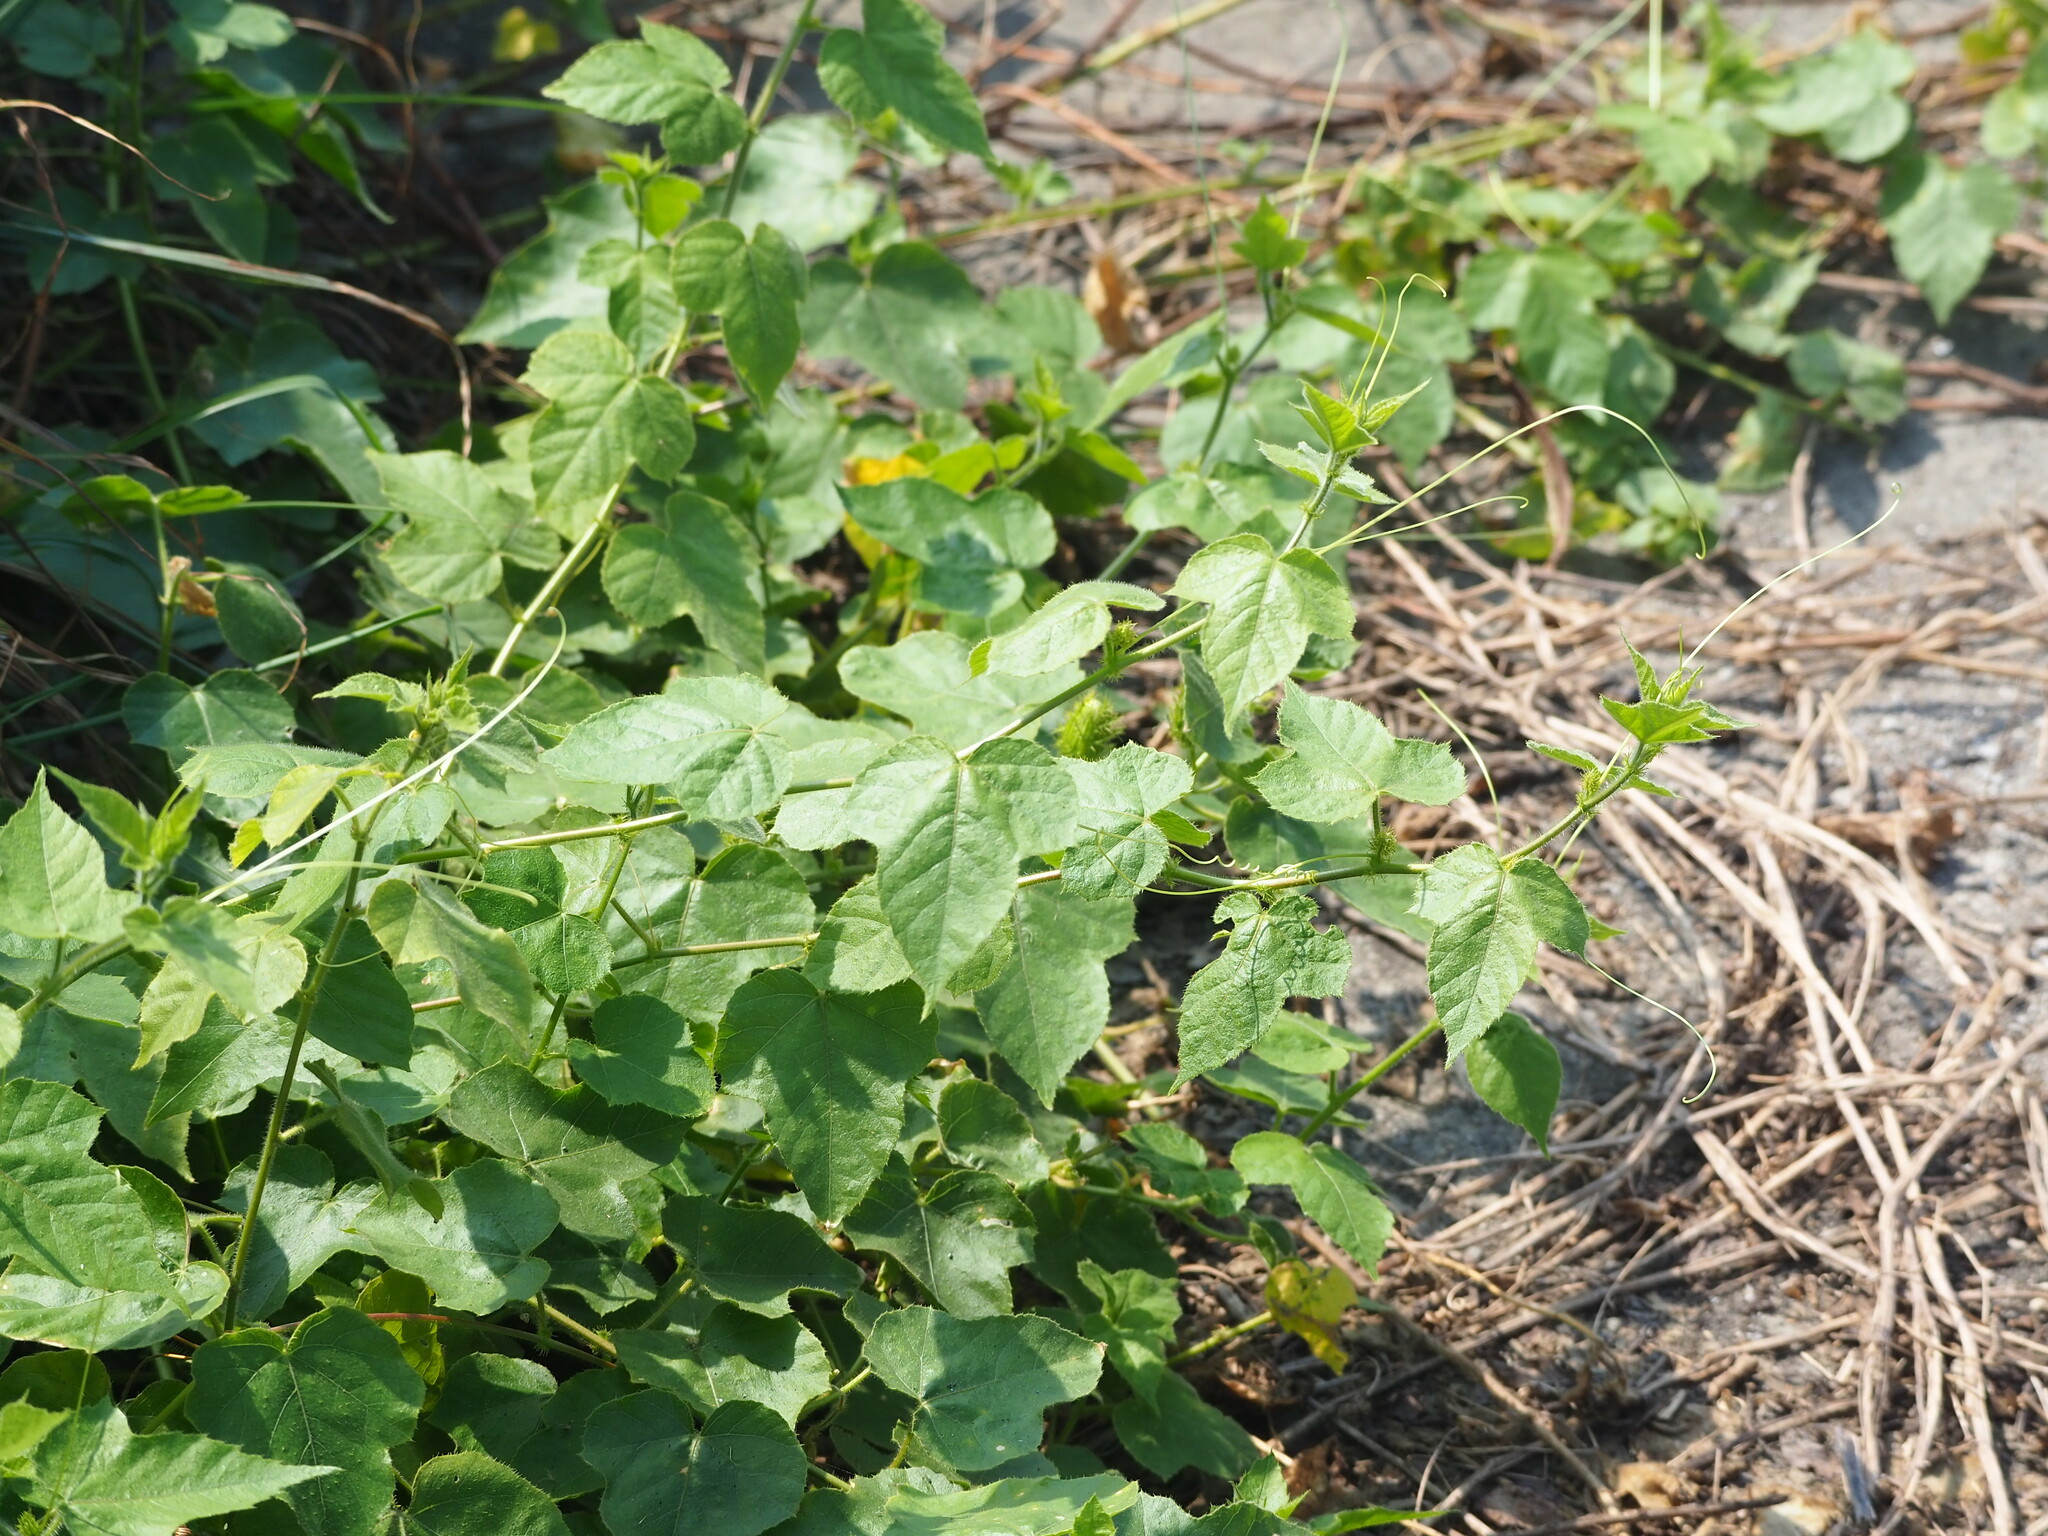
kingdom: Plantae
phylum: Tracheophyta
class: Magnoliopsida
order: Malpighiales
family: Passifloraceae
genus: Passiflora
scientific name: Passiflora vesicaria
